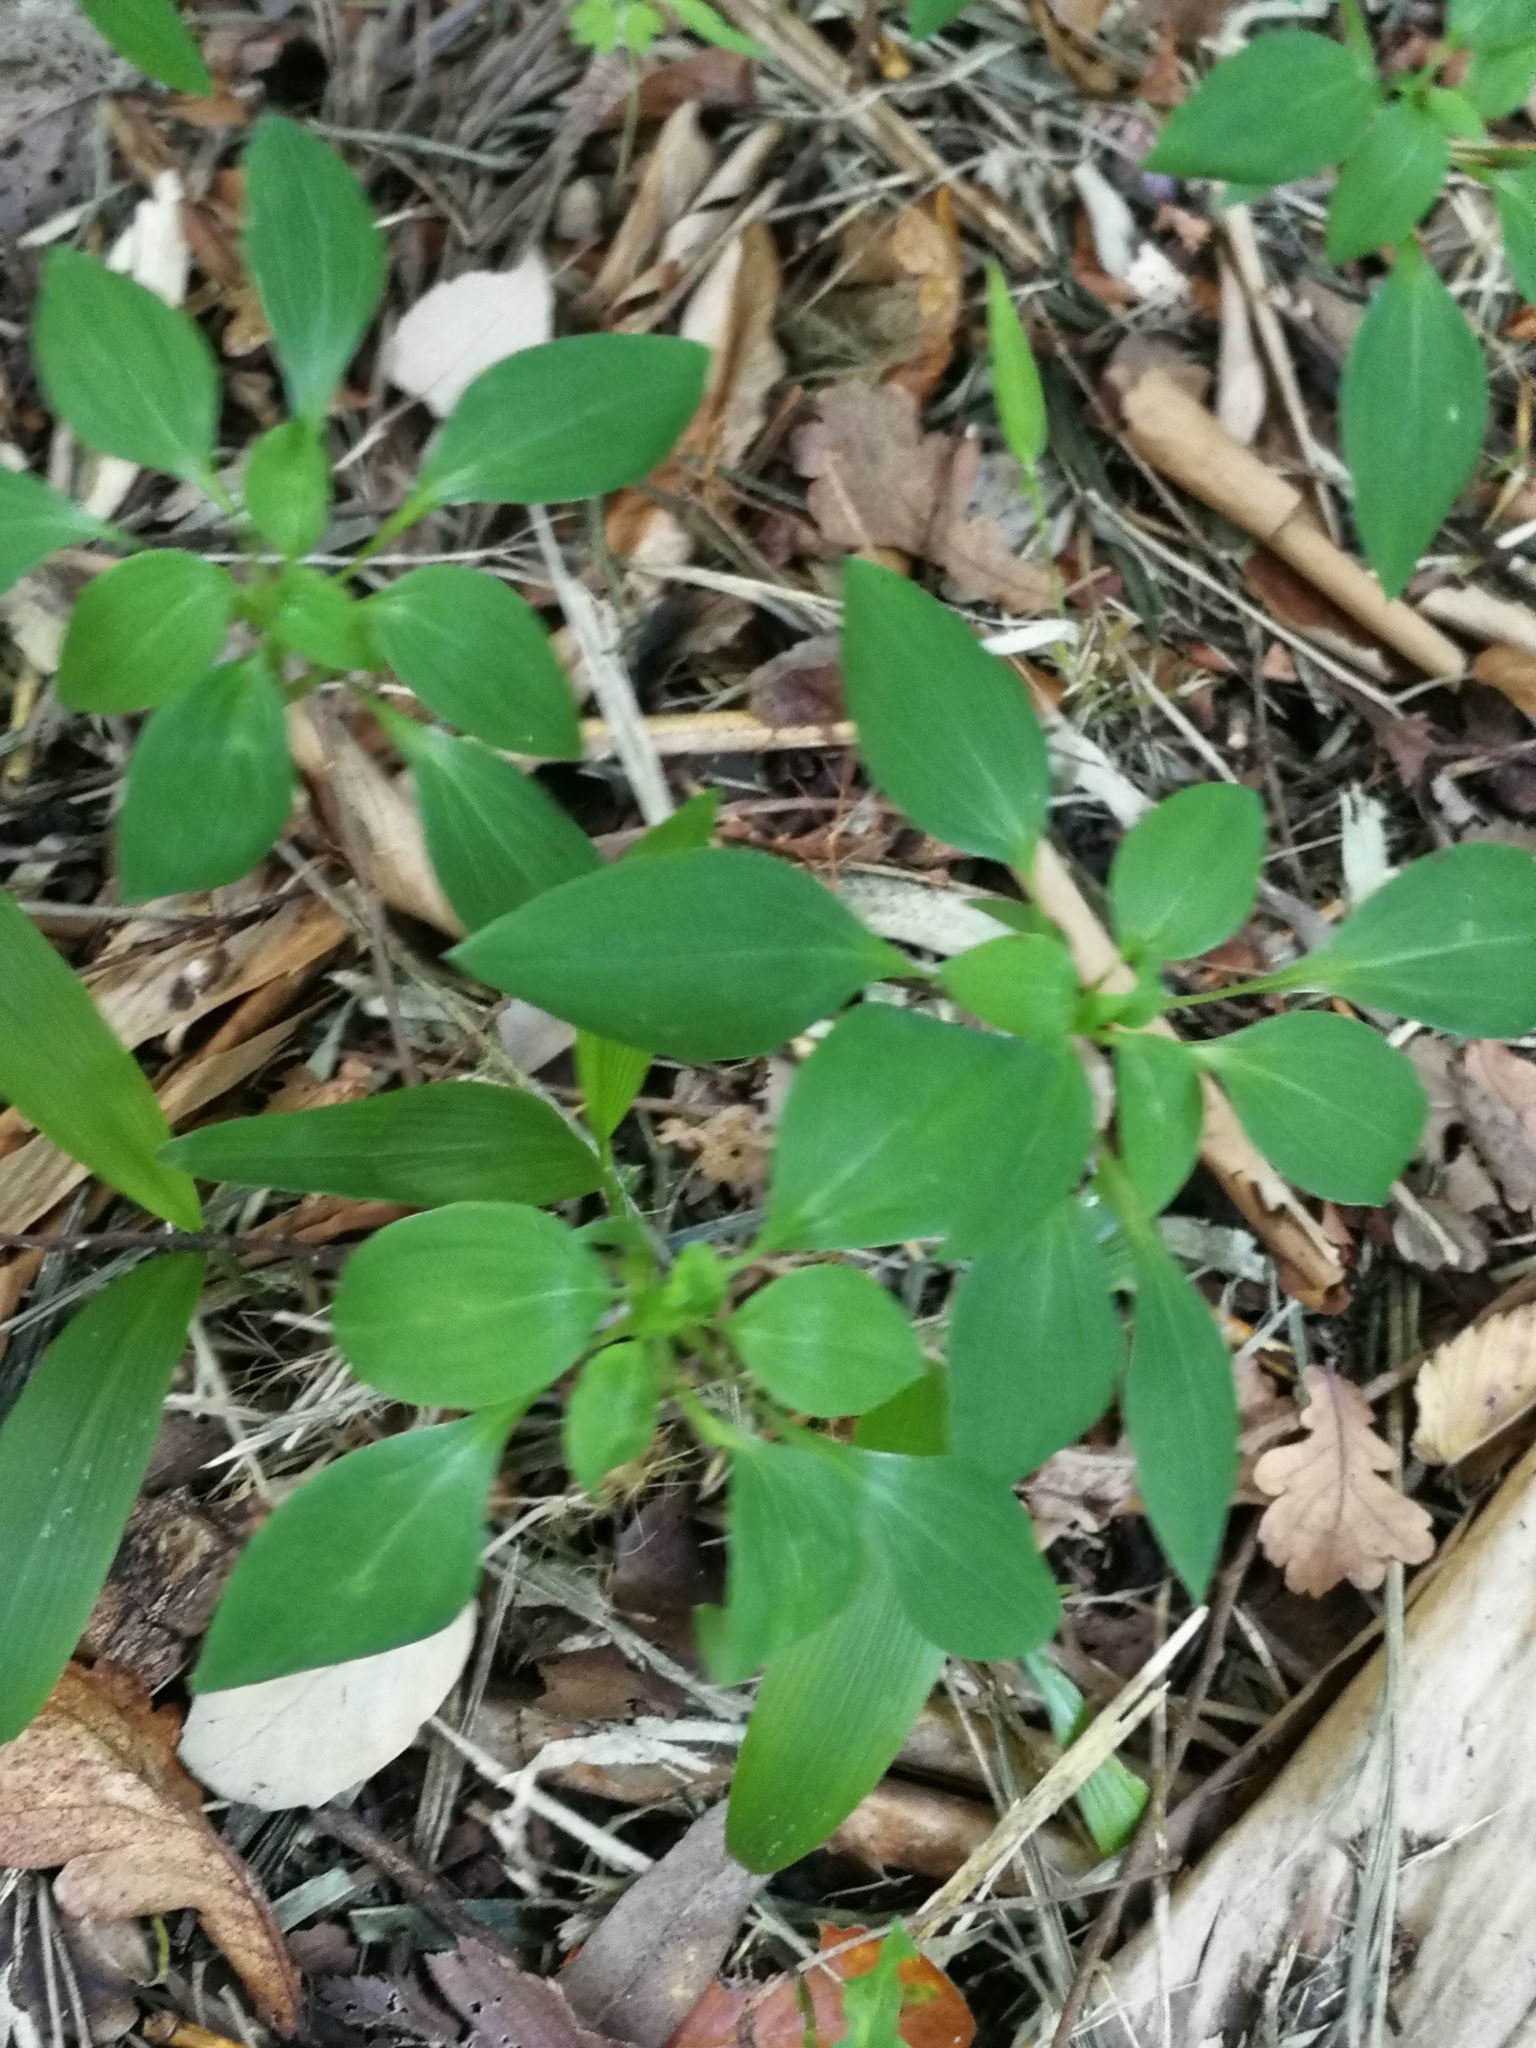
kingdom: Plantae
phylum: Tracheophyta
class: Liliopsida
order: Liliales
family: Alstroemeriaceae
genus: Alstroemeria
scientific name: Alstroemeria psittacina
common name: Peruvian-lily
